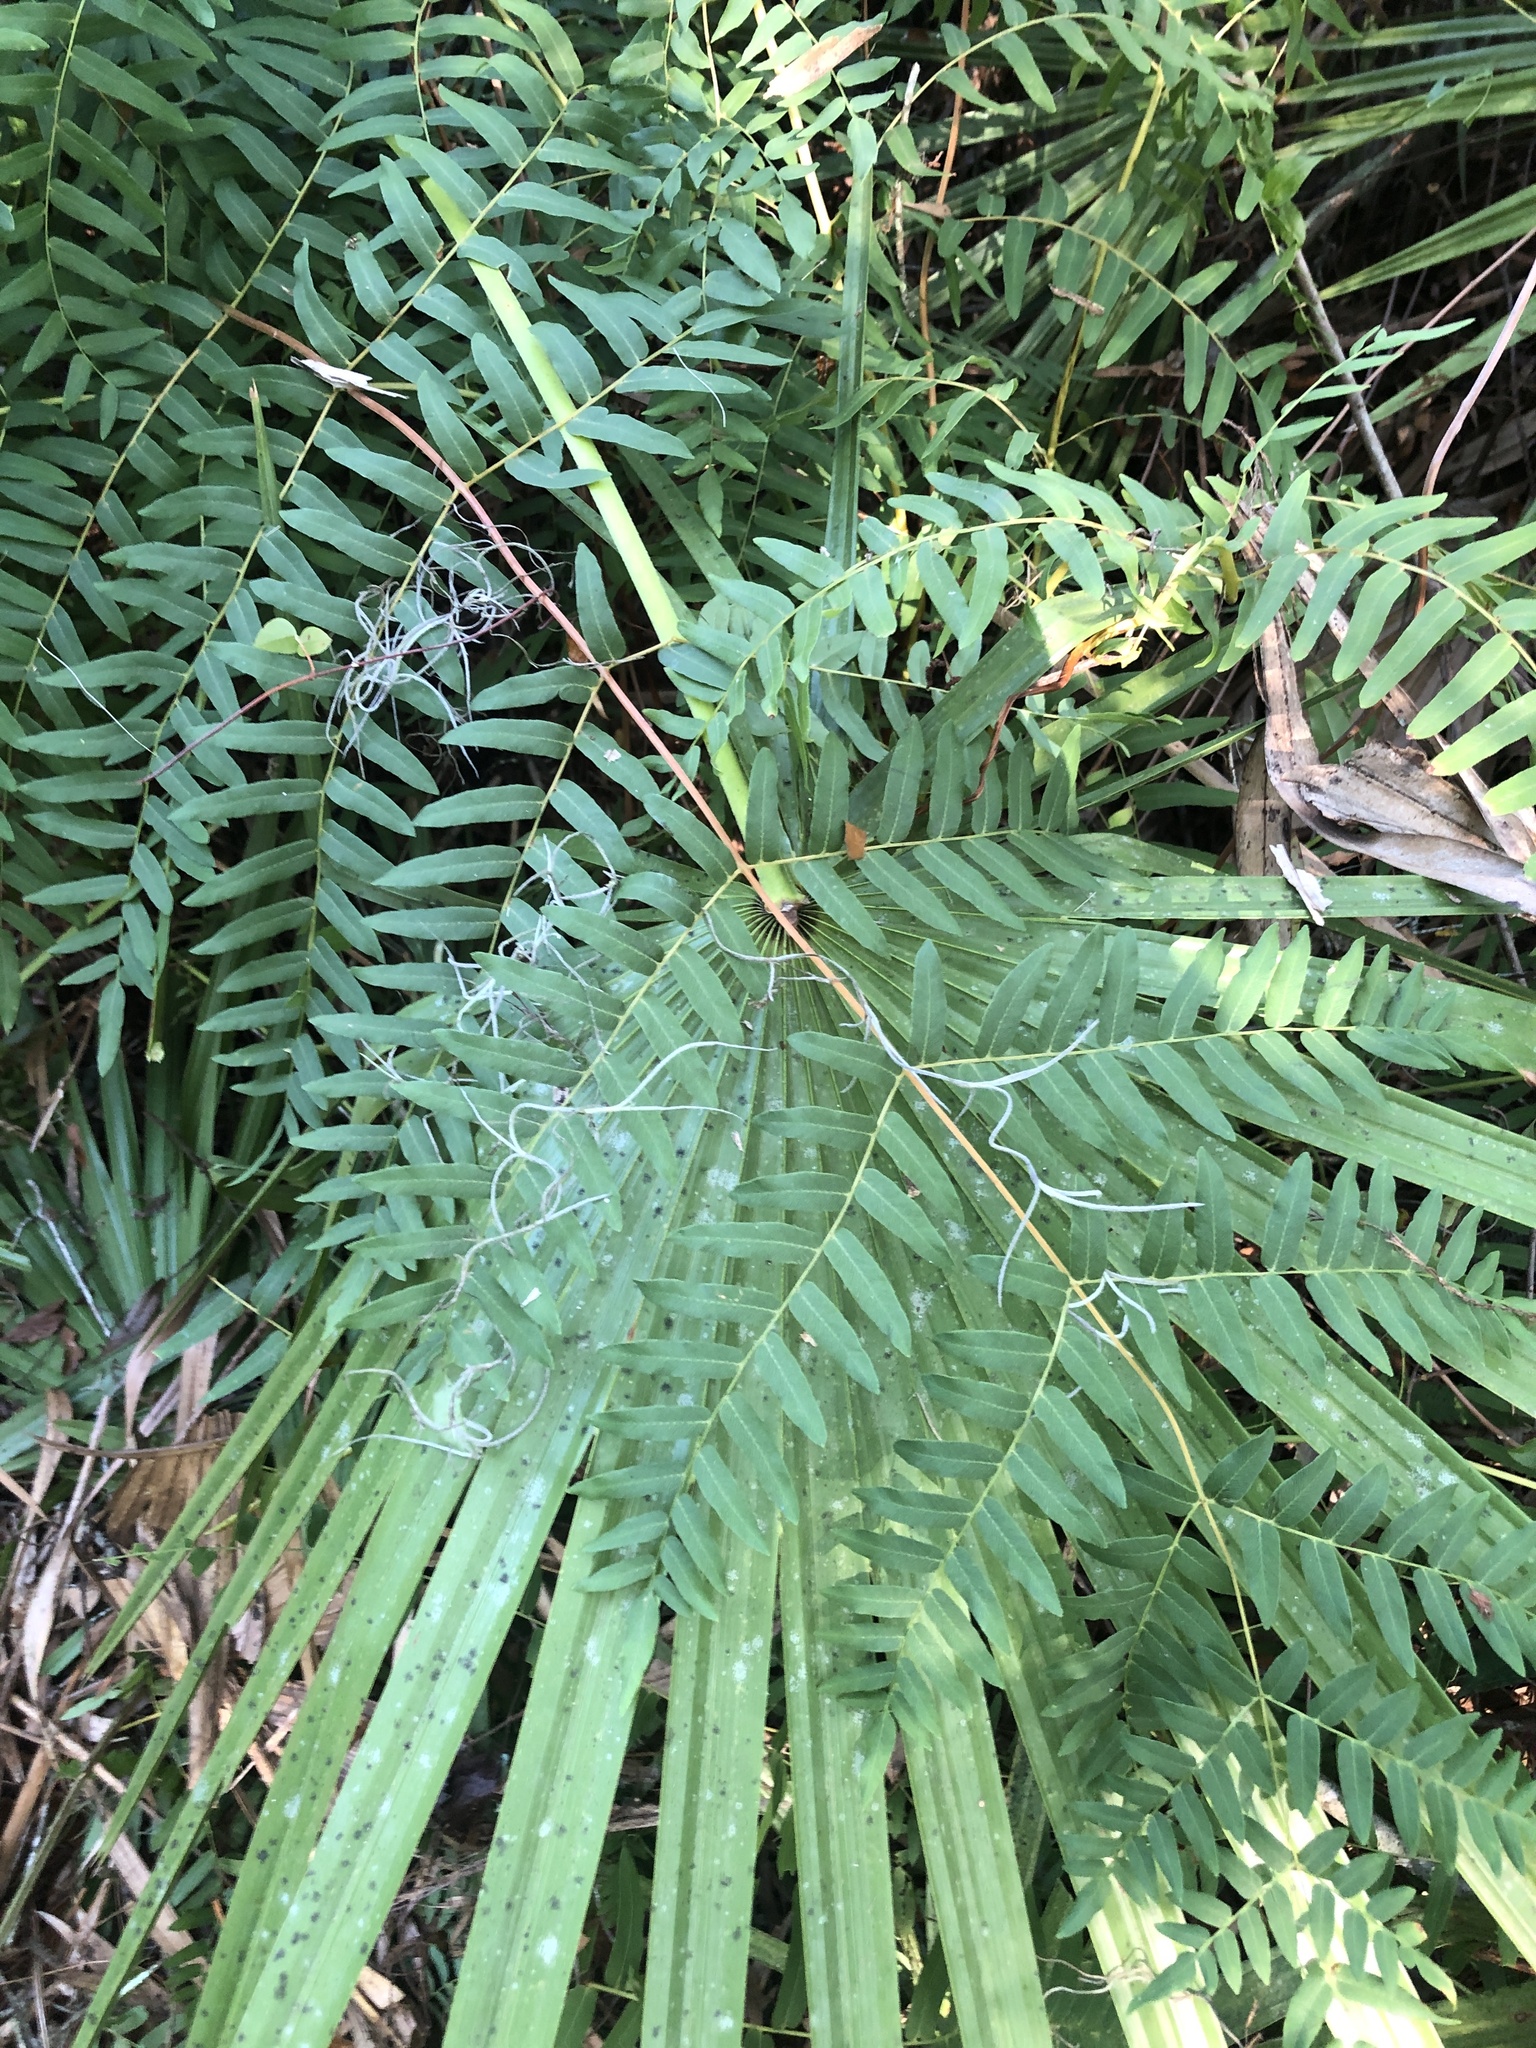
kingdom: Plantae
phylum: Tracheophyta
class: Polypodiopsida
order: Osmundales
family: Osmundaceae
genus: Osmunda
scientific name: Osmunda spectabilis
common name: American royal fern
